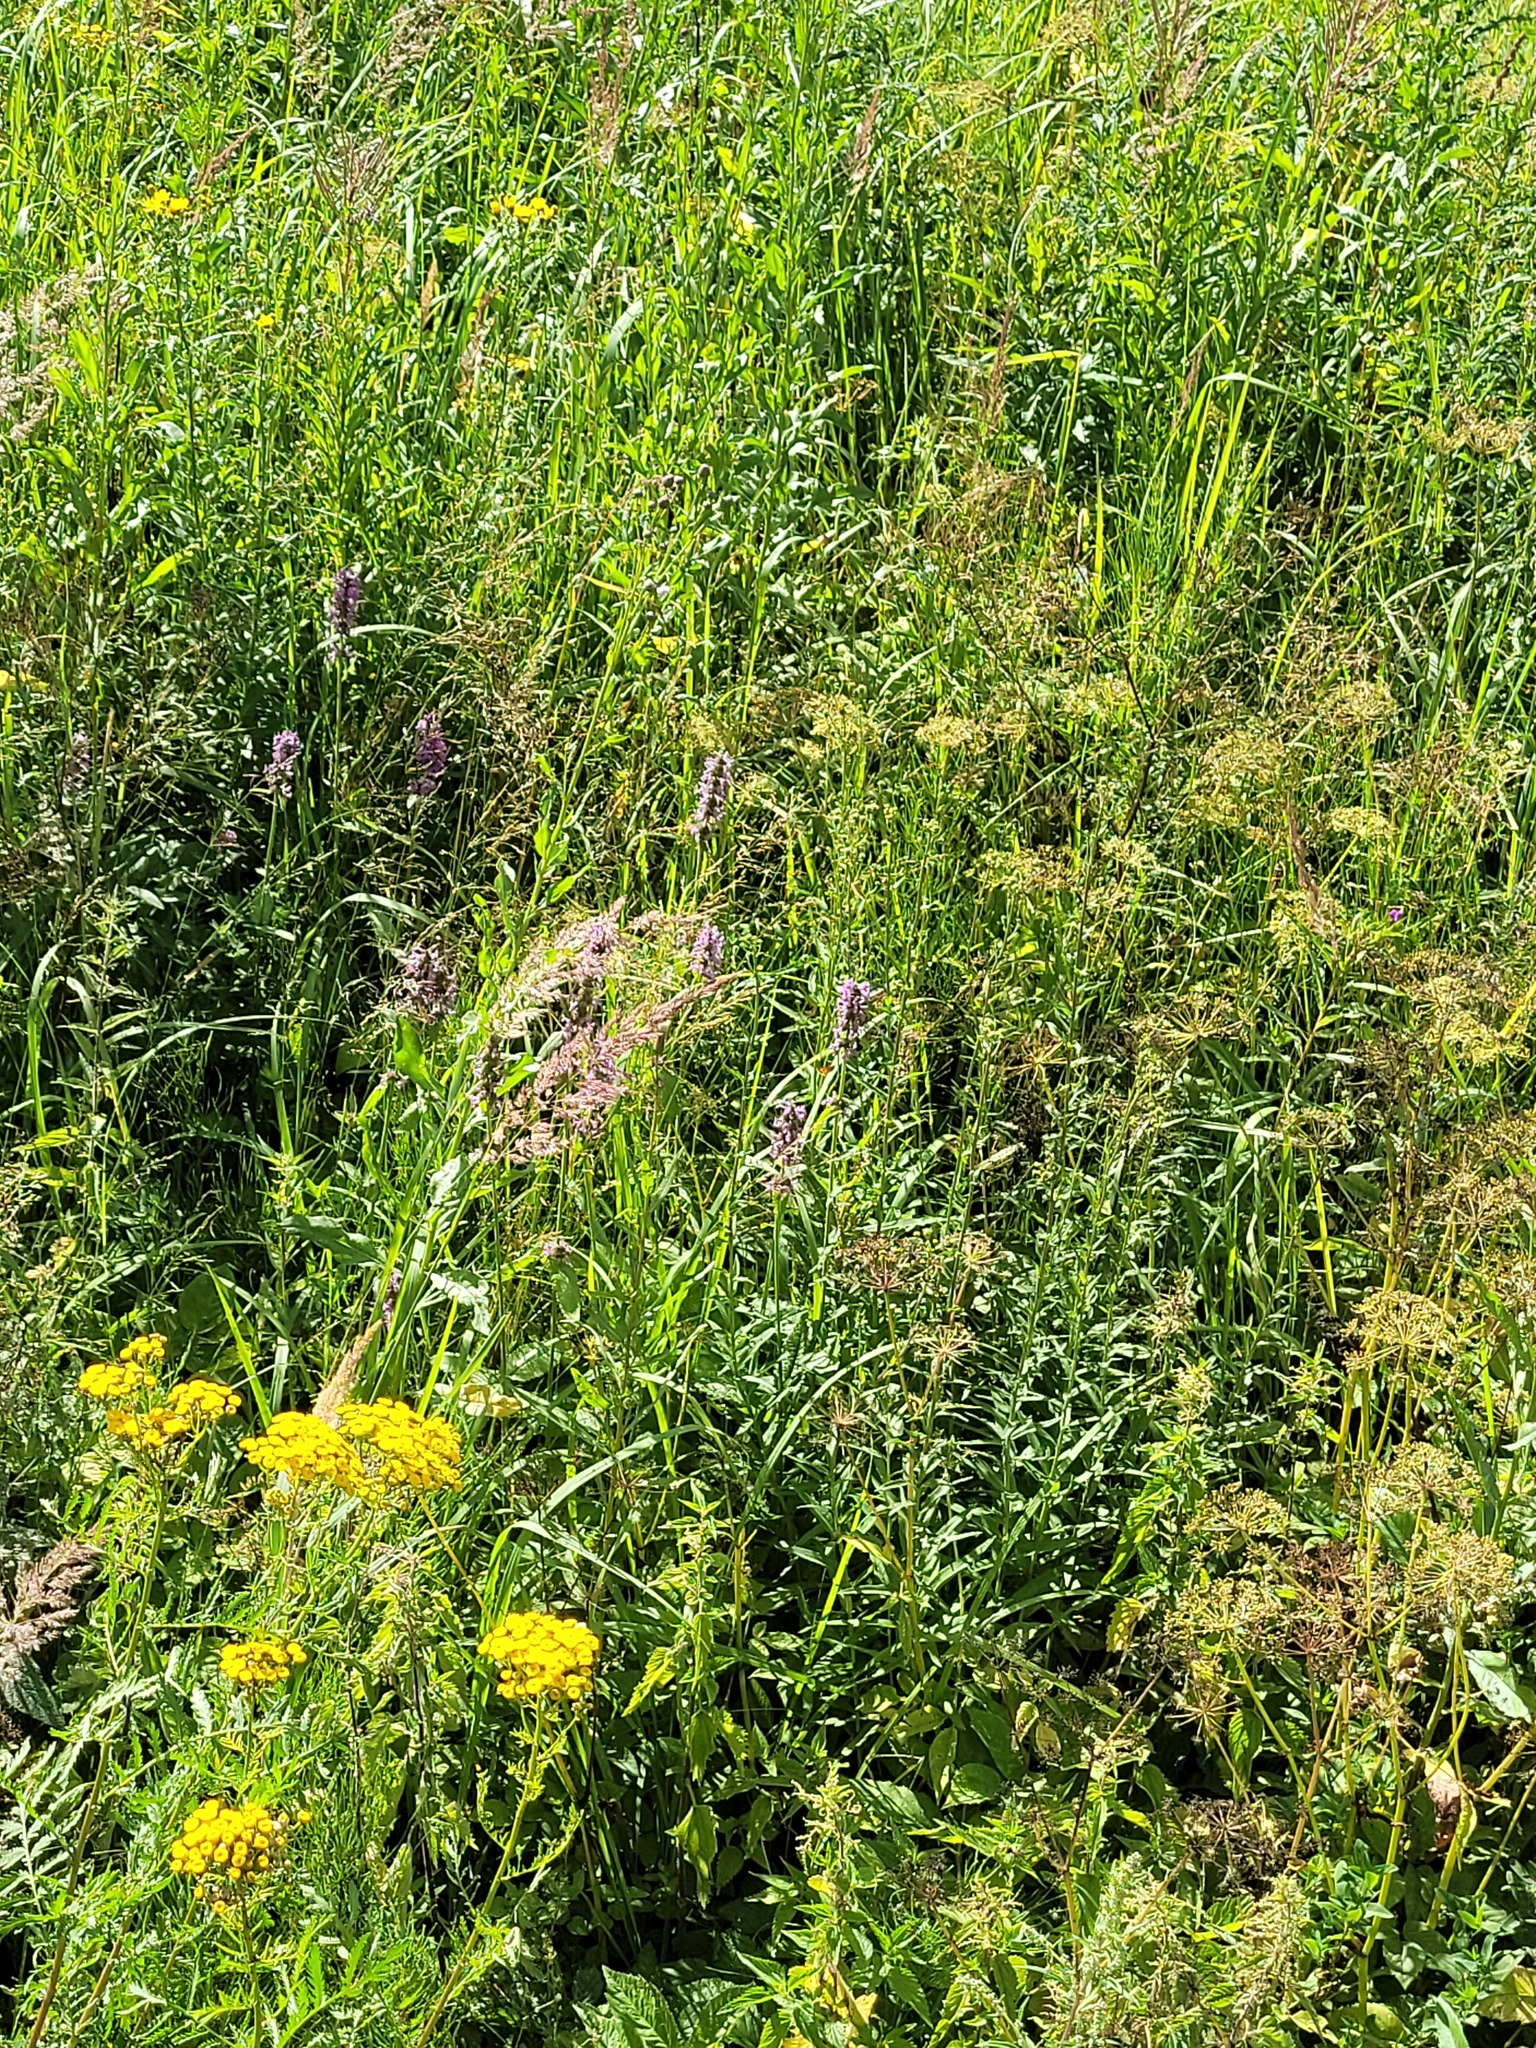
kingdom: Plantae
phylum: Tracheophyta
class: Magnoliopsida
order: Lamiales
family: Lamiaceae
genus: Betonica
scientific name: Betonica officinalis
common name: Bishop's-wort
